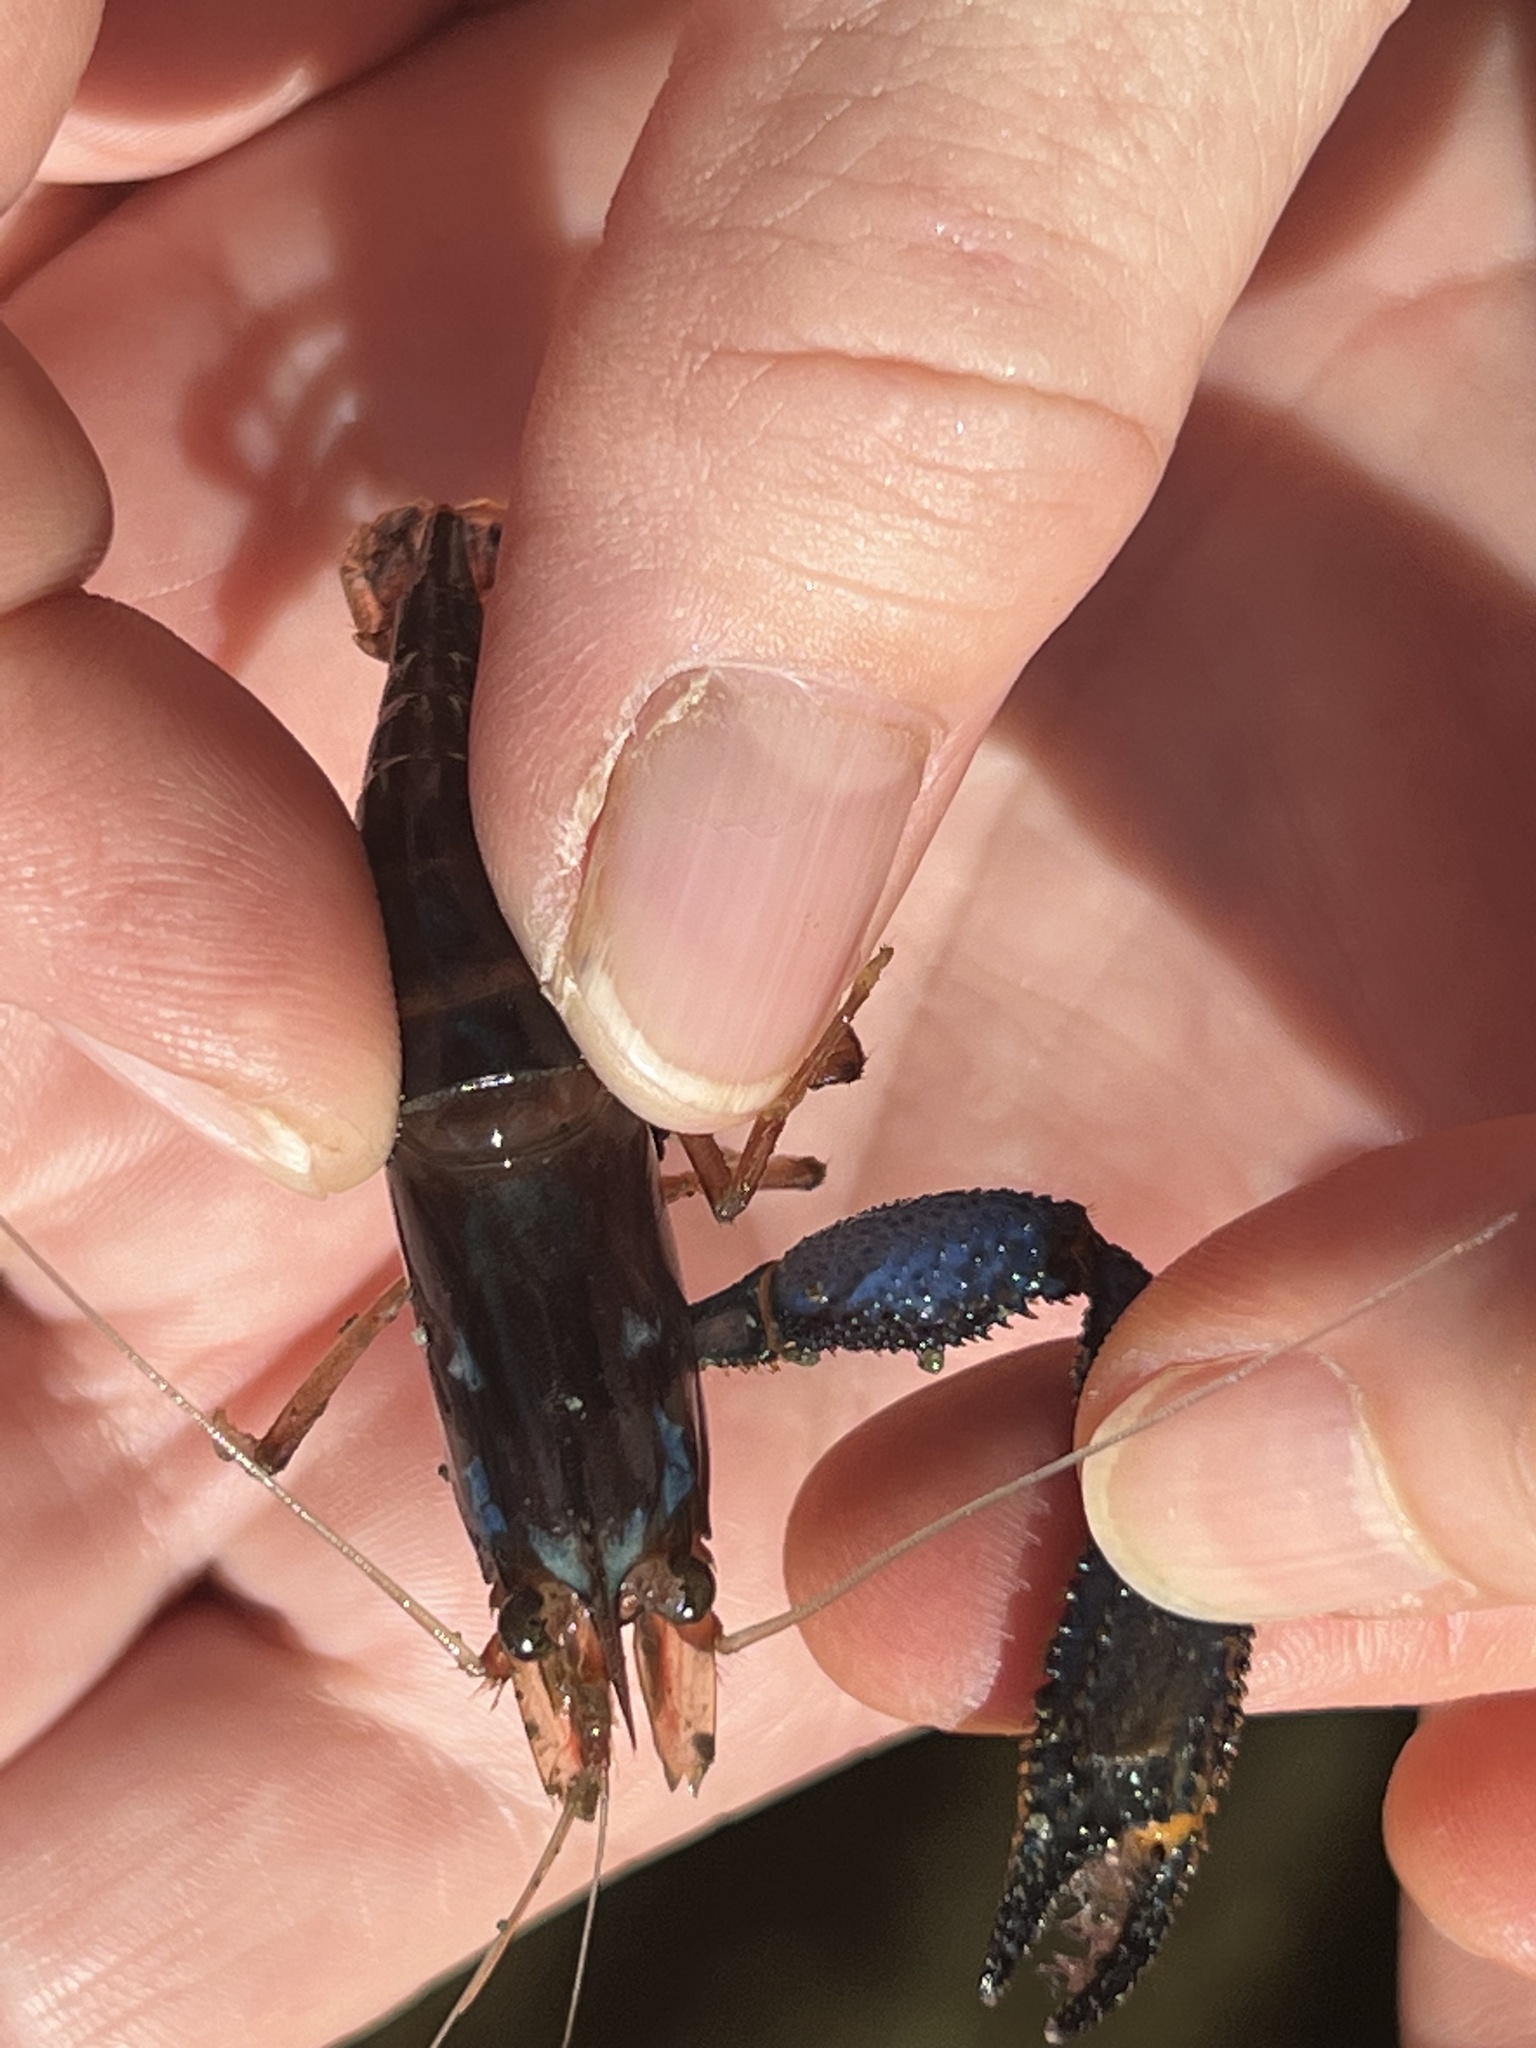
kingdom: Animalia
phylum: Arthropoda
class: Malacostraca
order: Decapoda
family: Palaemonidae
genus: Macrobrachium
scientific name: Macrobrachium hancocki
